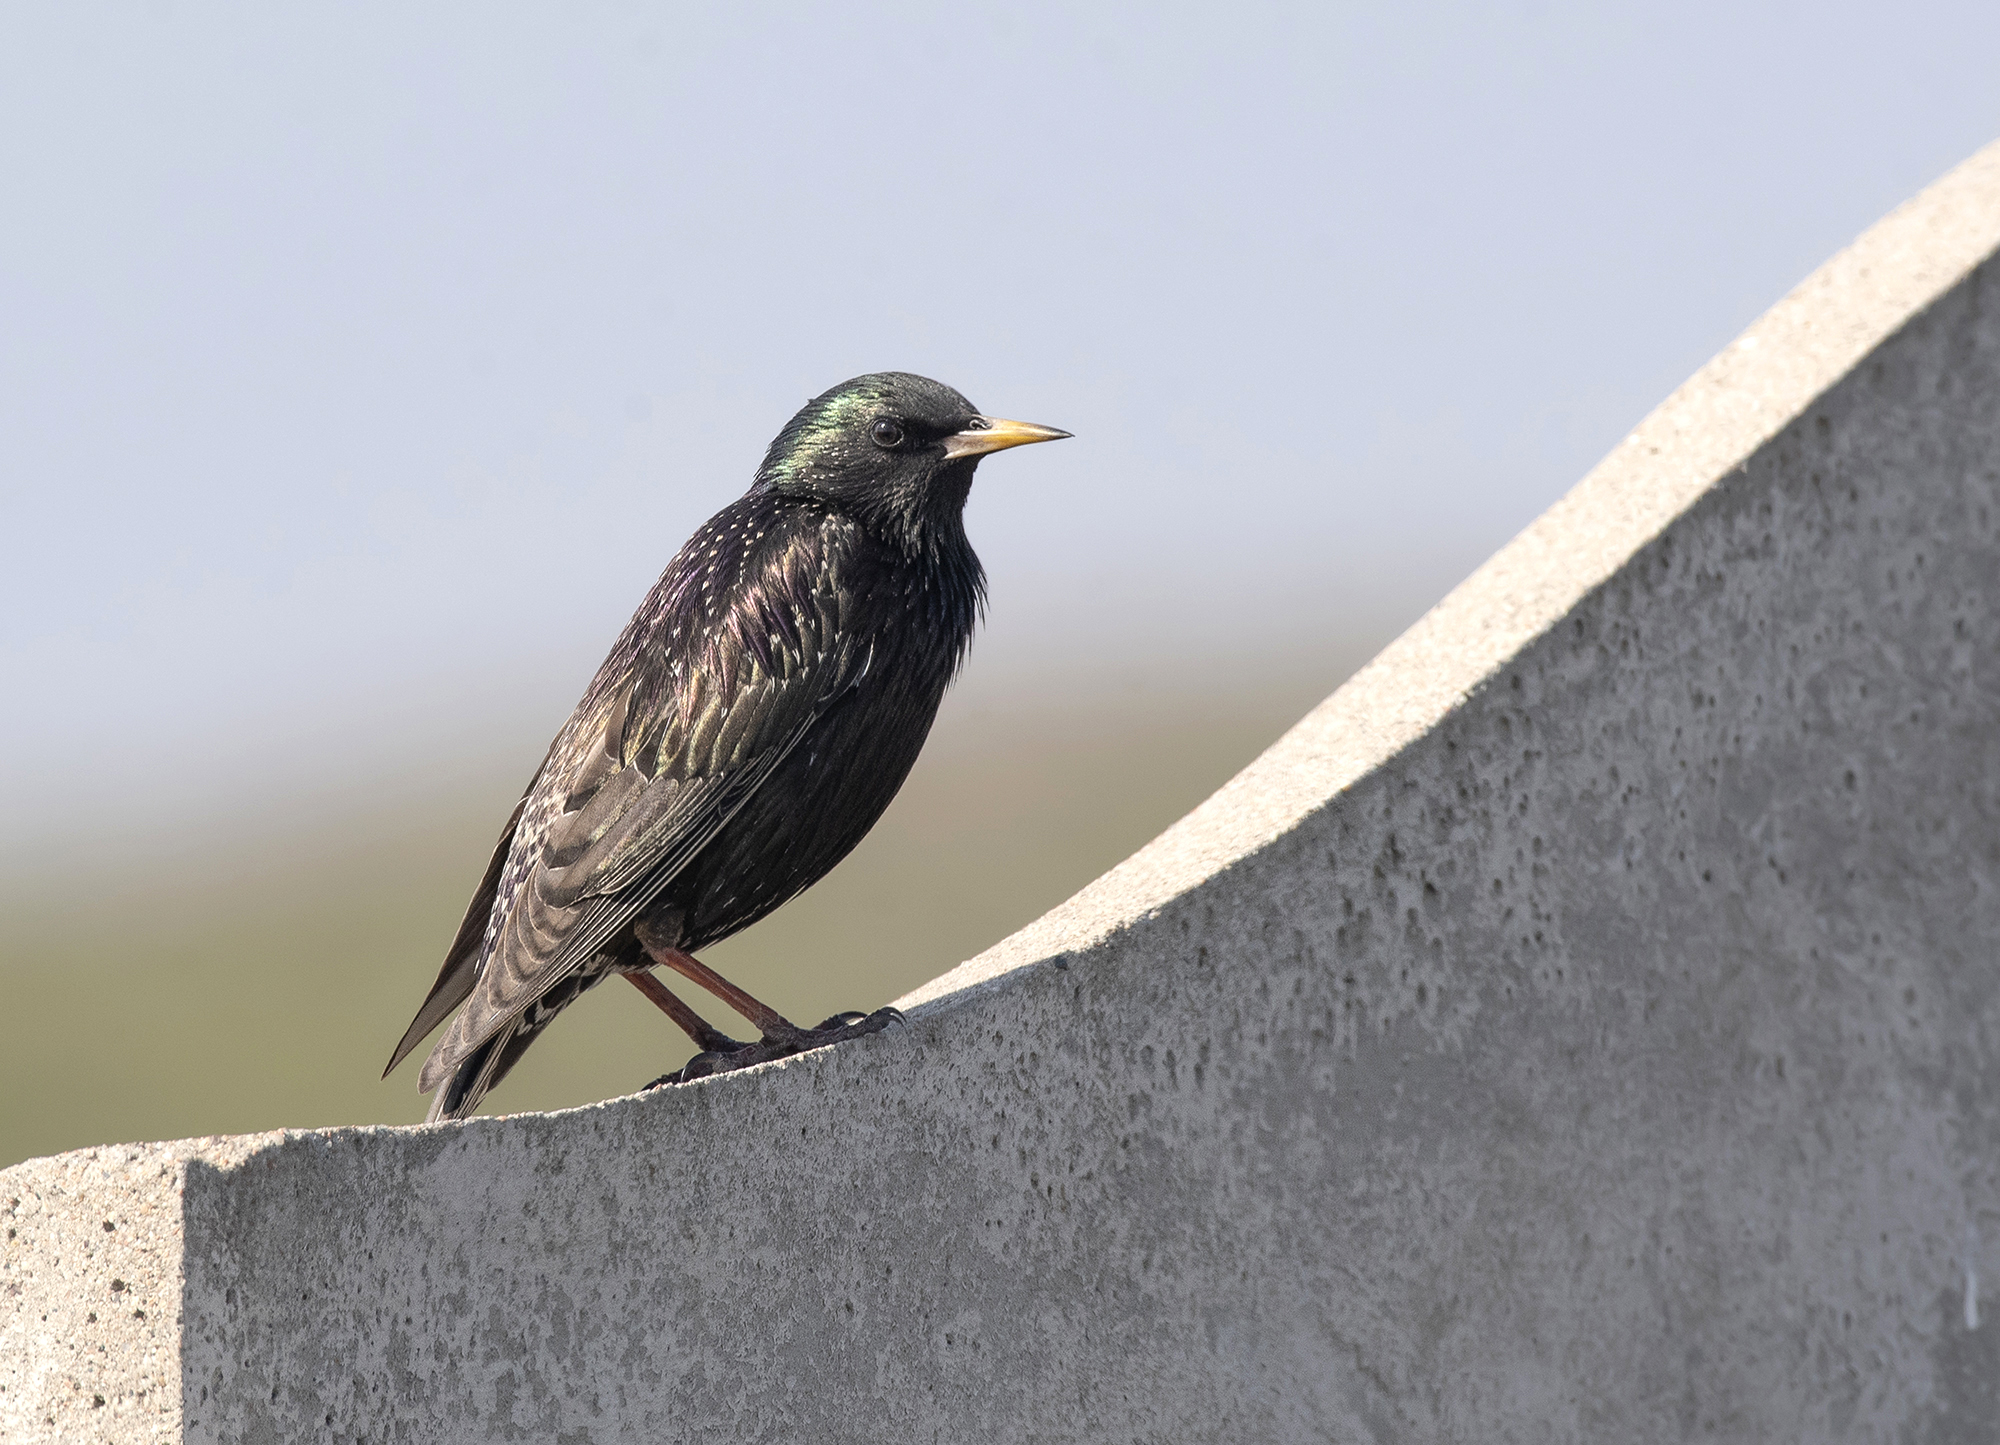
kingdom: Animalia
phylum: Chordata
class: Aves
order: Passeriformes
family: Sturnidae
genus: Sturnus
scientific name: Sturnus vulgaris
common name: Common starling
